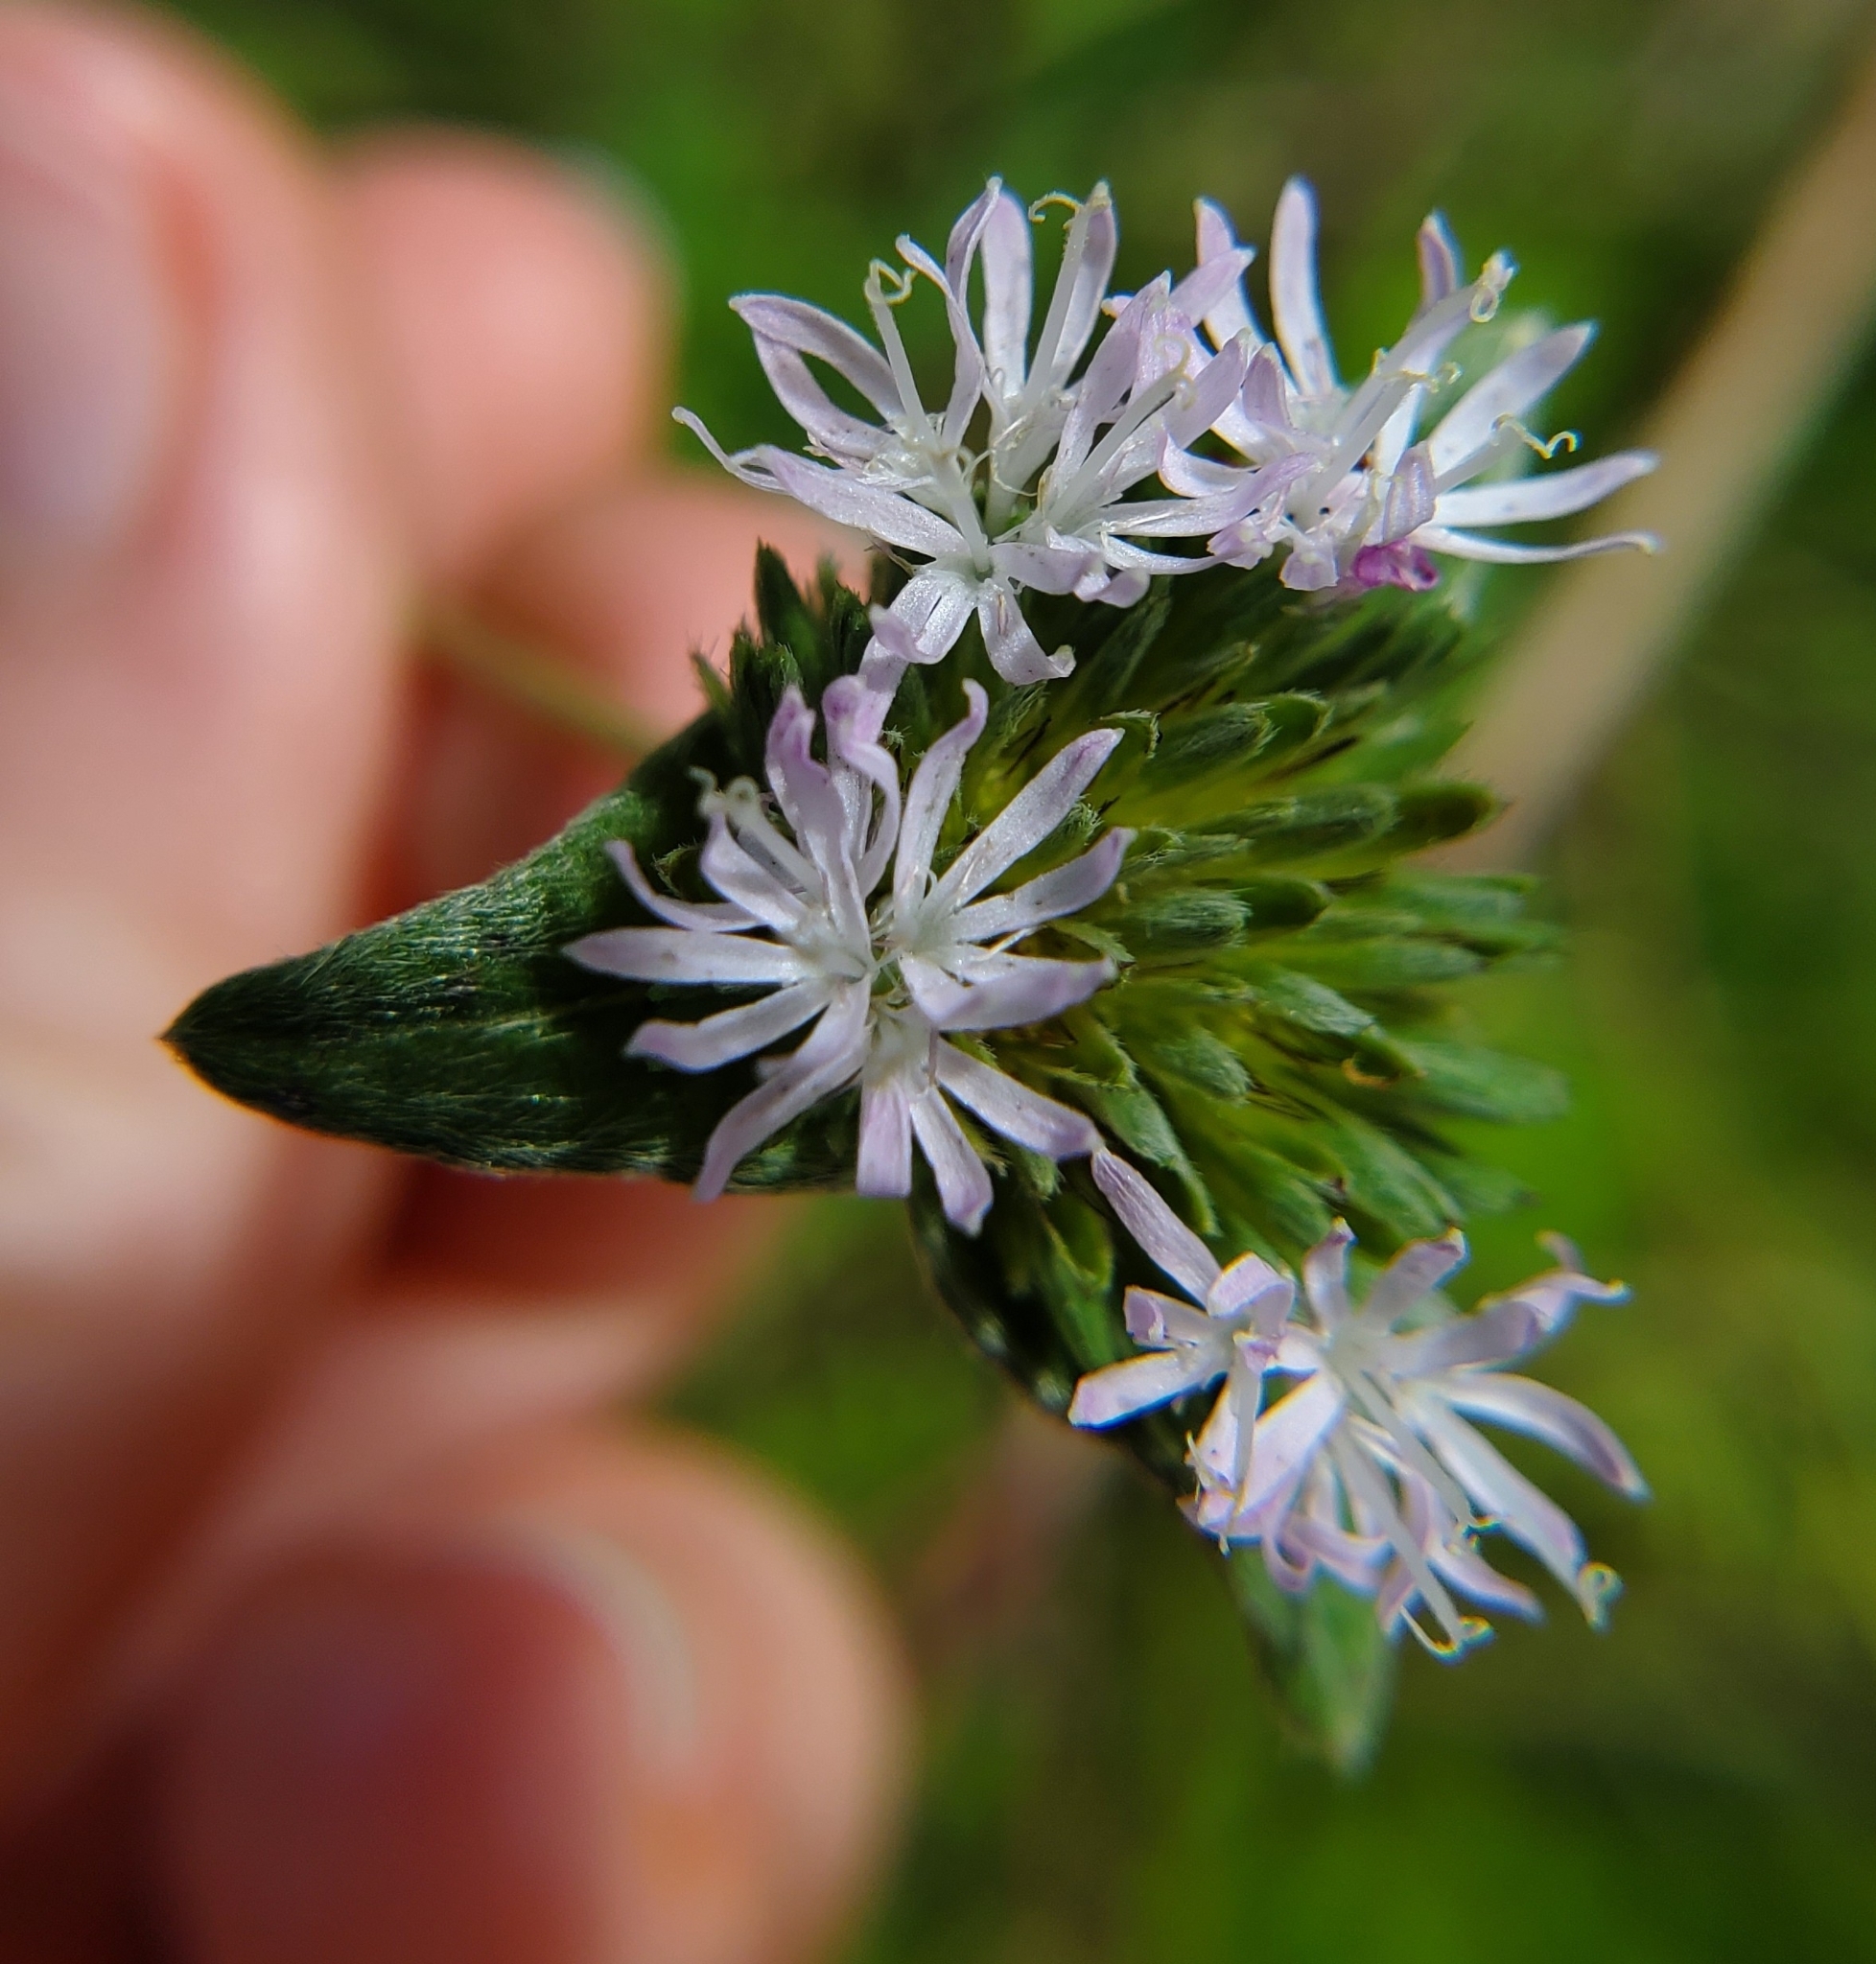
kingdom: Plantae
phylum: Tracheophyta
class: Magnoliopsida
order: Asterales
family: Asteraceae
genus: Elephantopus
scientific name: Elephantopus elatus
